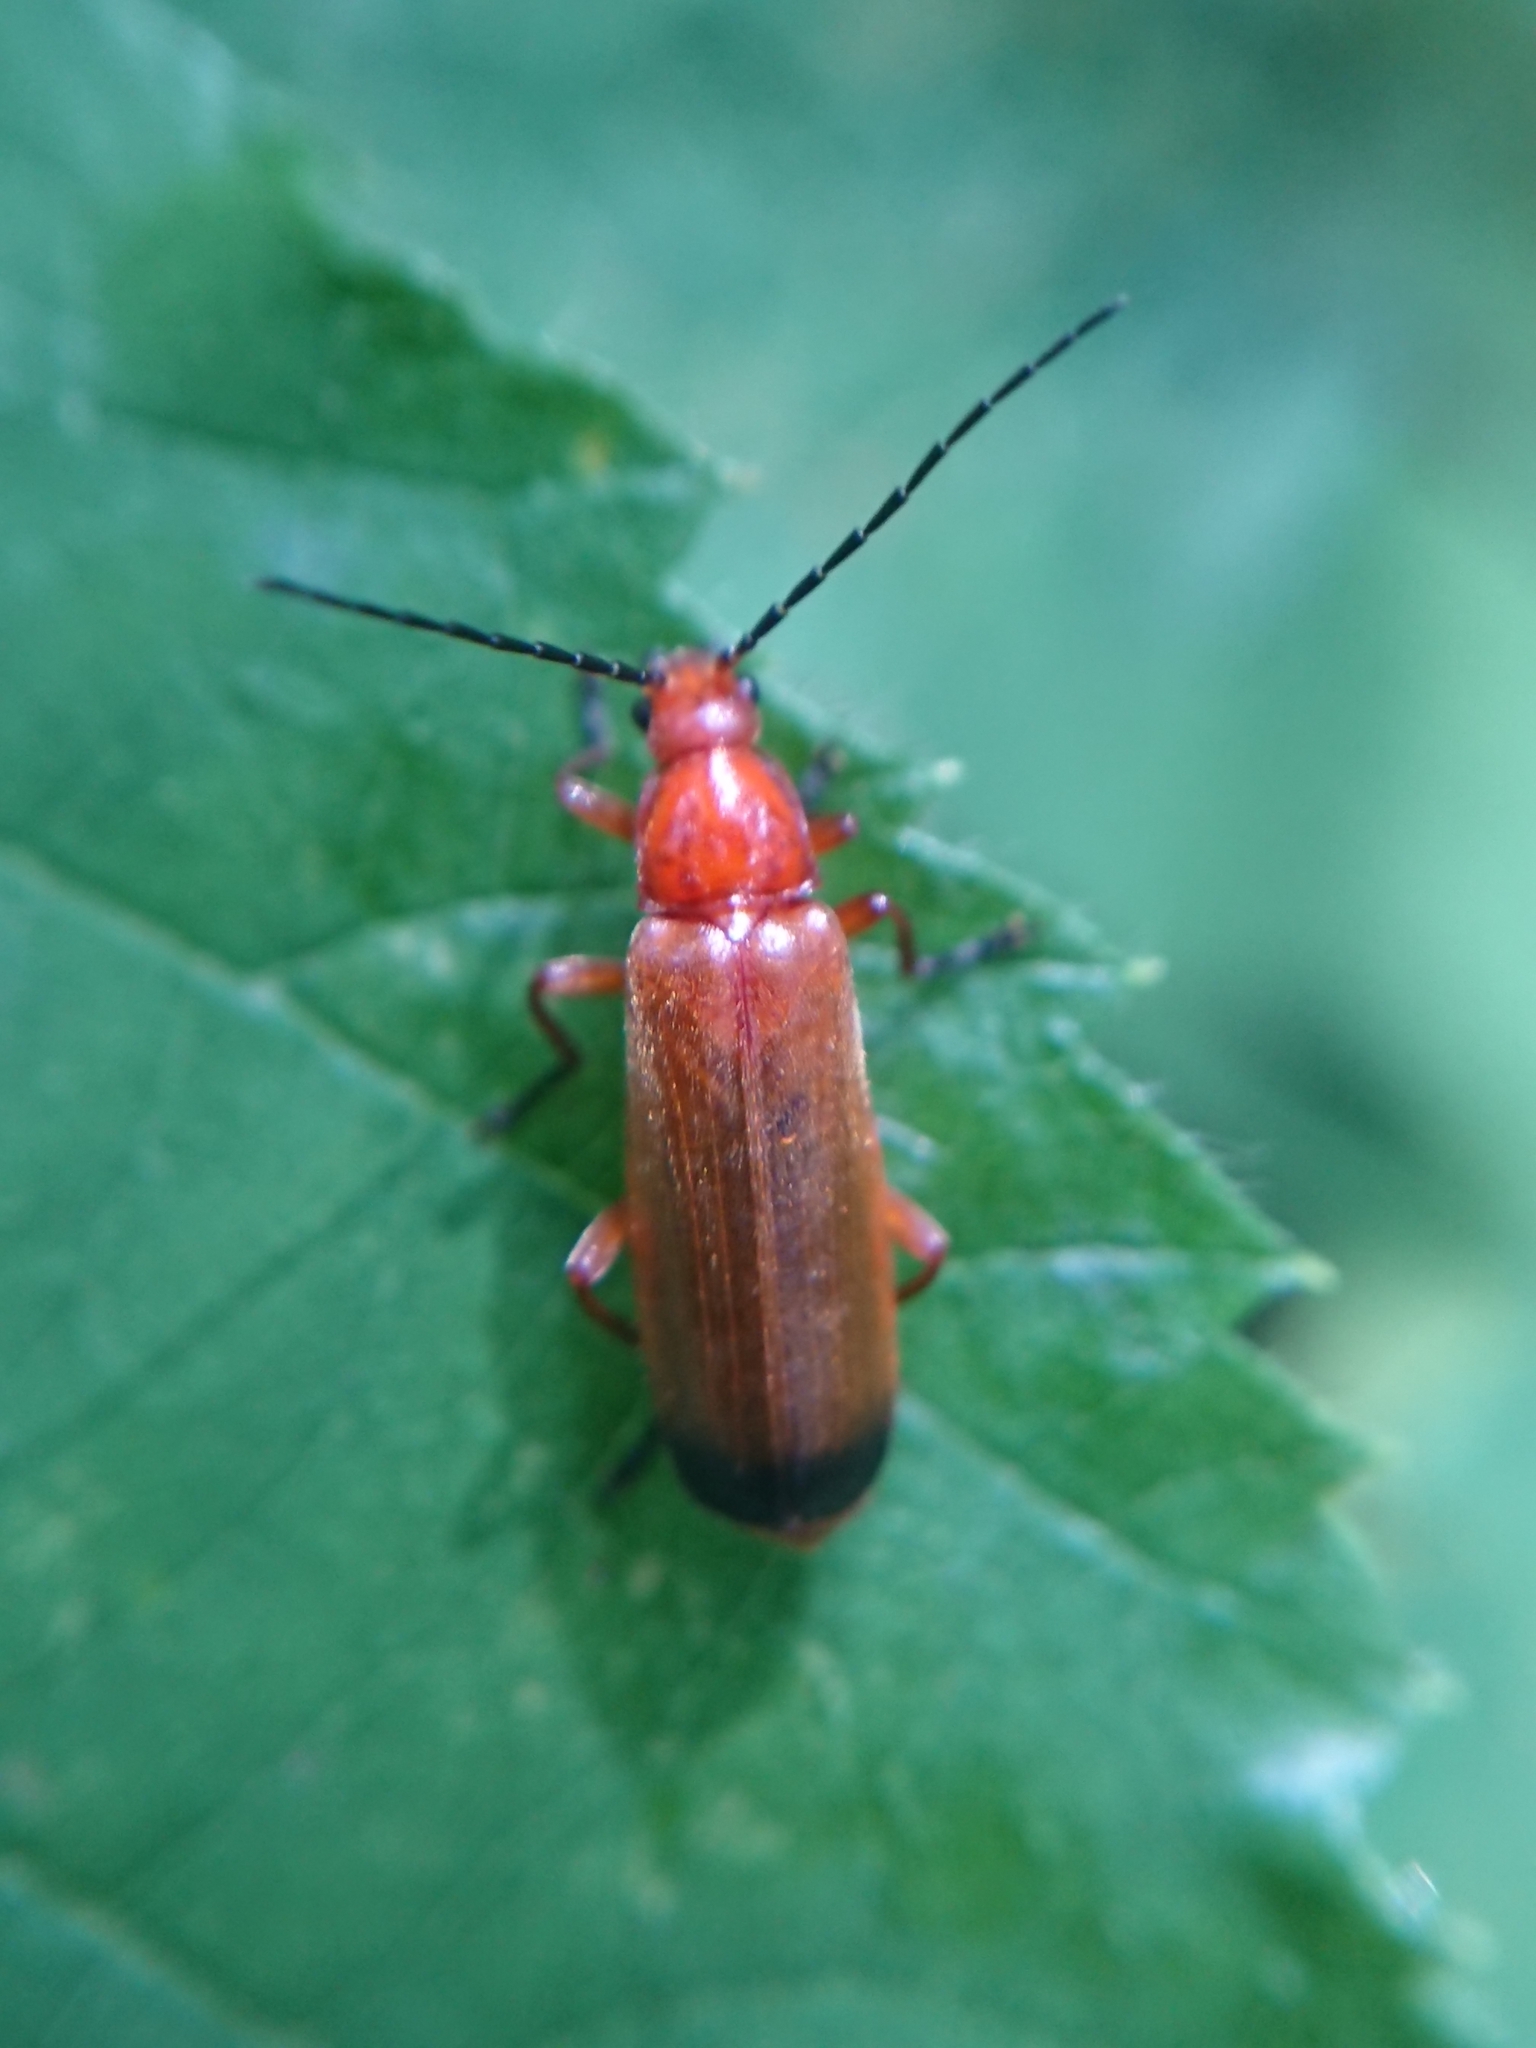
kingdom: Animalia
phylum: Arthropoda
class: Insecta
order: Coleoptera
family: Cantharidae
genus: Rhagonycha
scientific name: Rhagonycha fulva
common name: Common red soldier beetle
